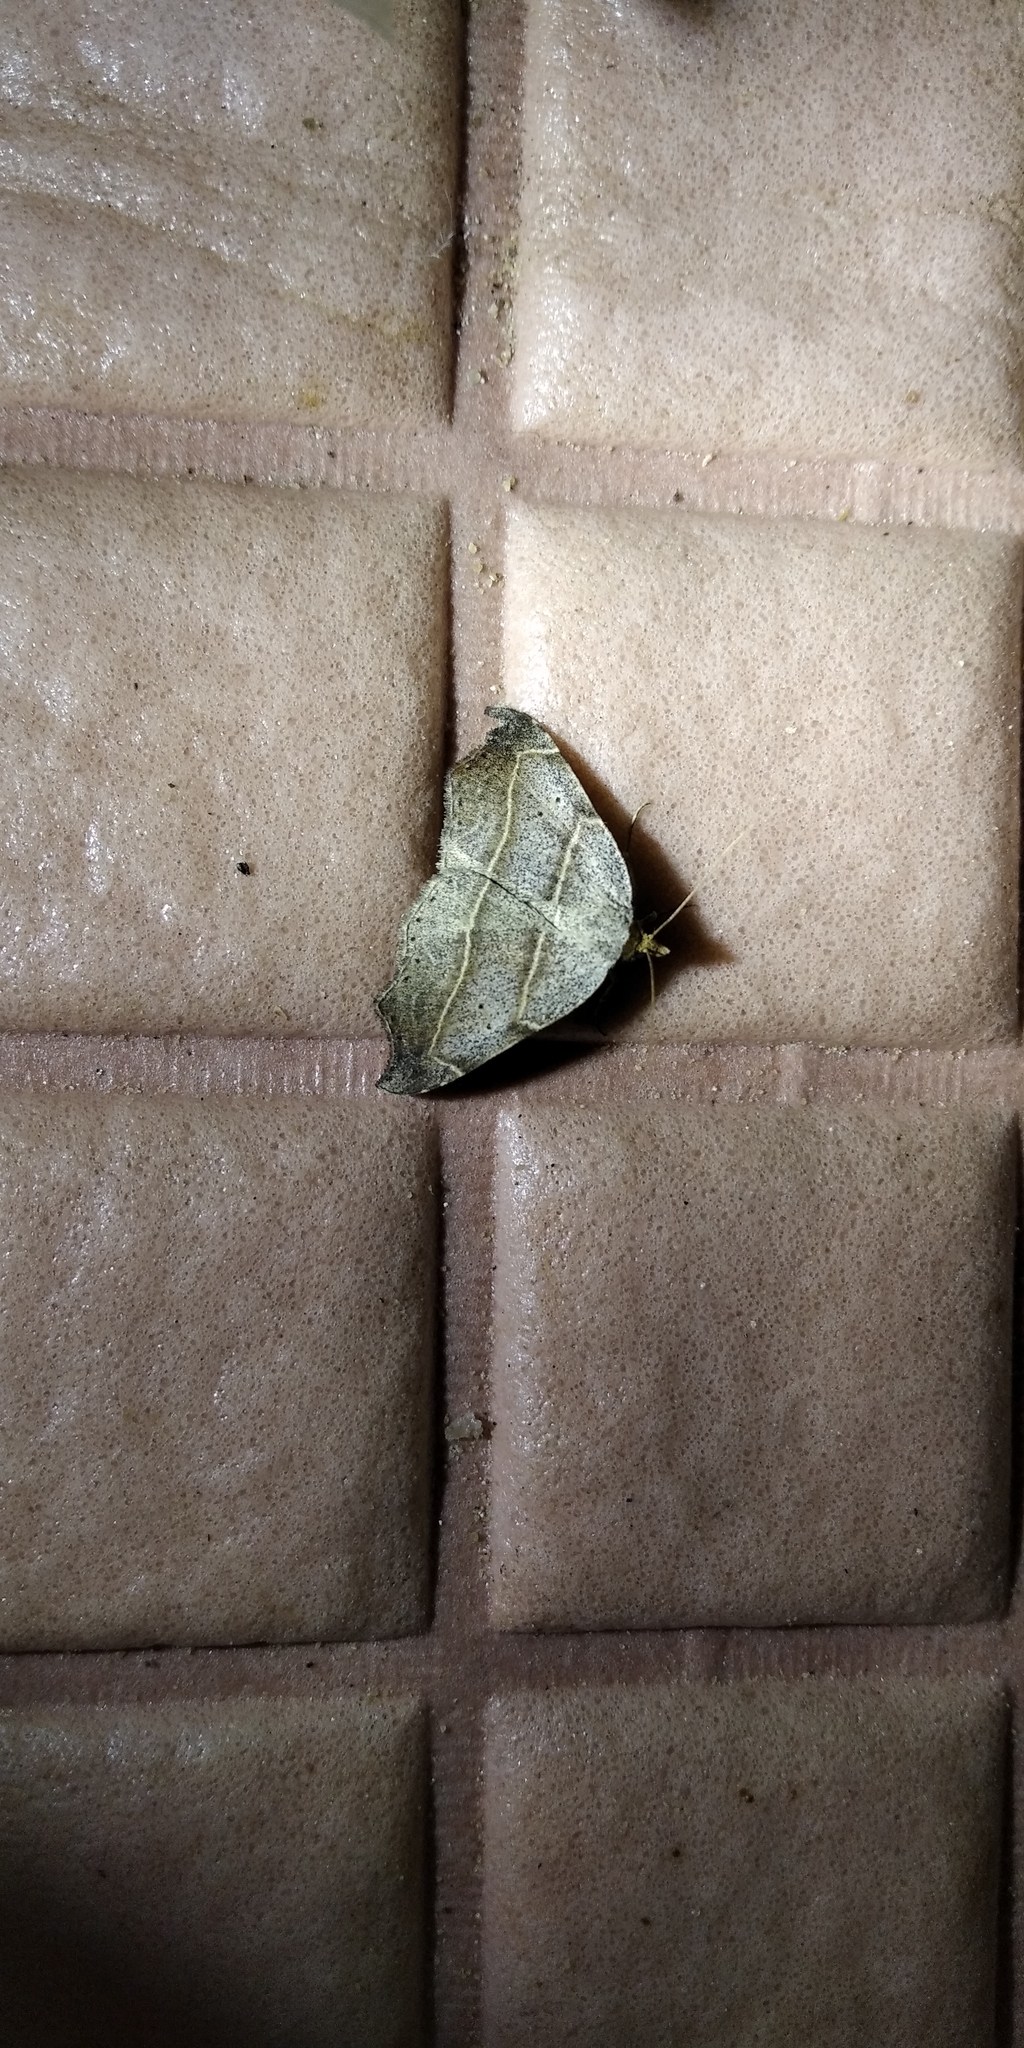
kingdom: Animalia
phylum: Arthropoda
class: Insecta
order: Lepidoptera
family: Erebidae
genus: Laspeyria
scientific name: Laspeyria flexula
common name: Beautiful hook-tip
